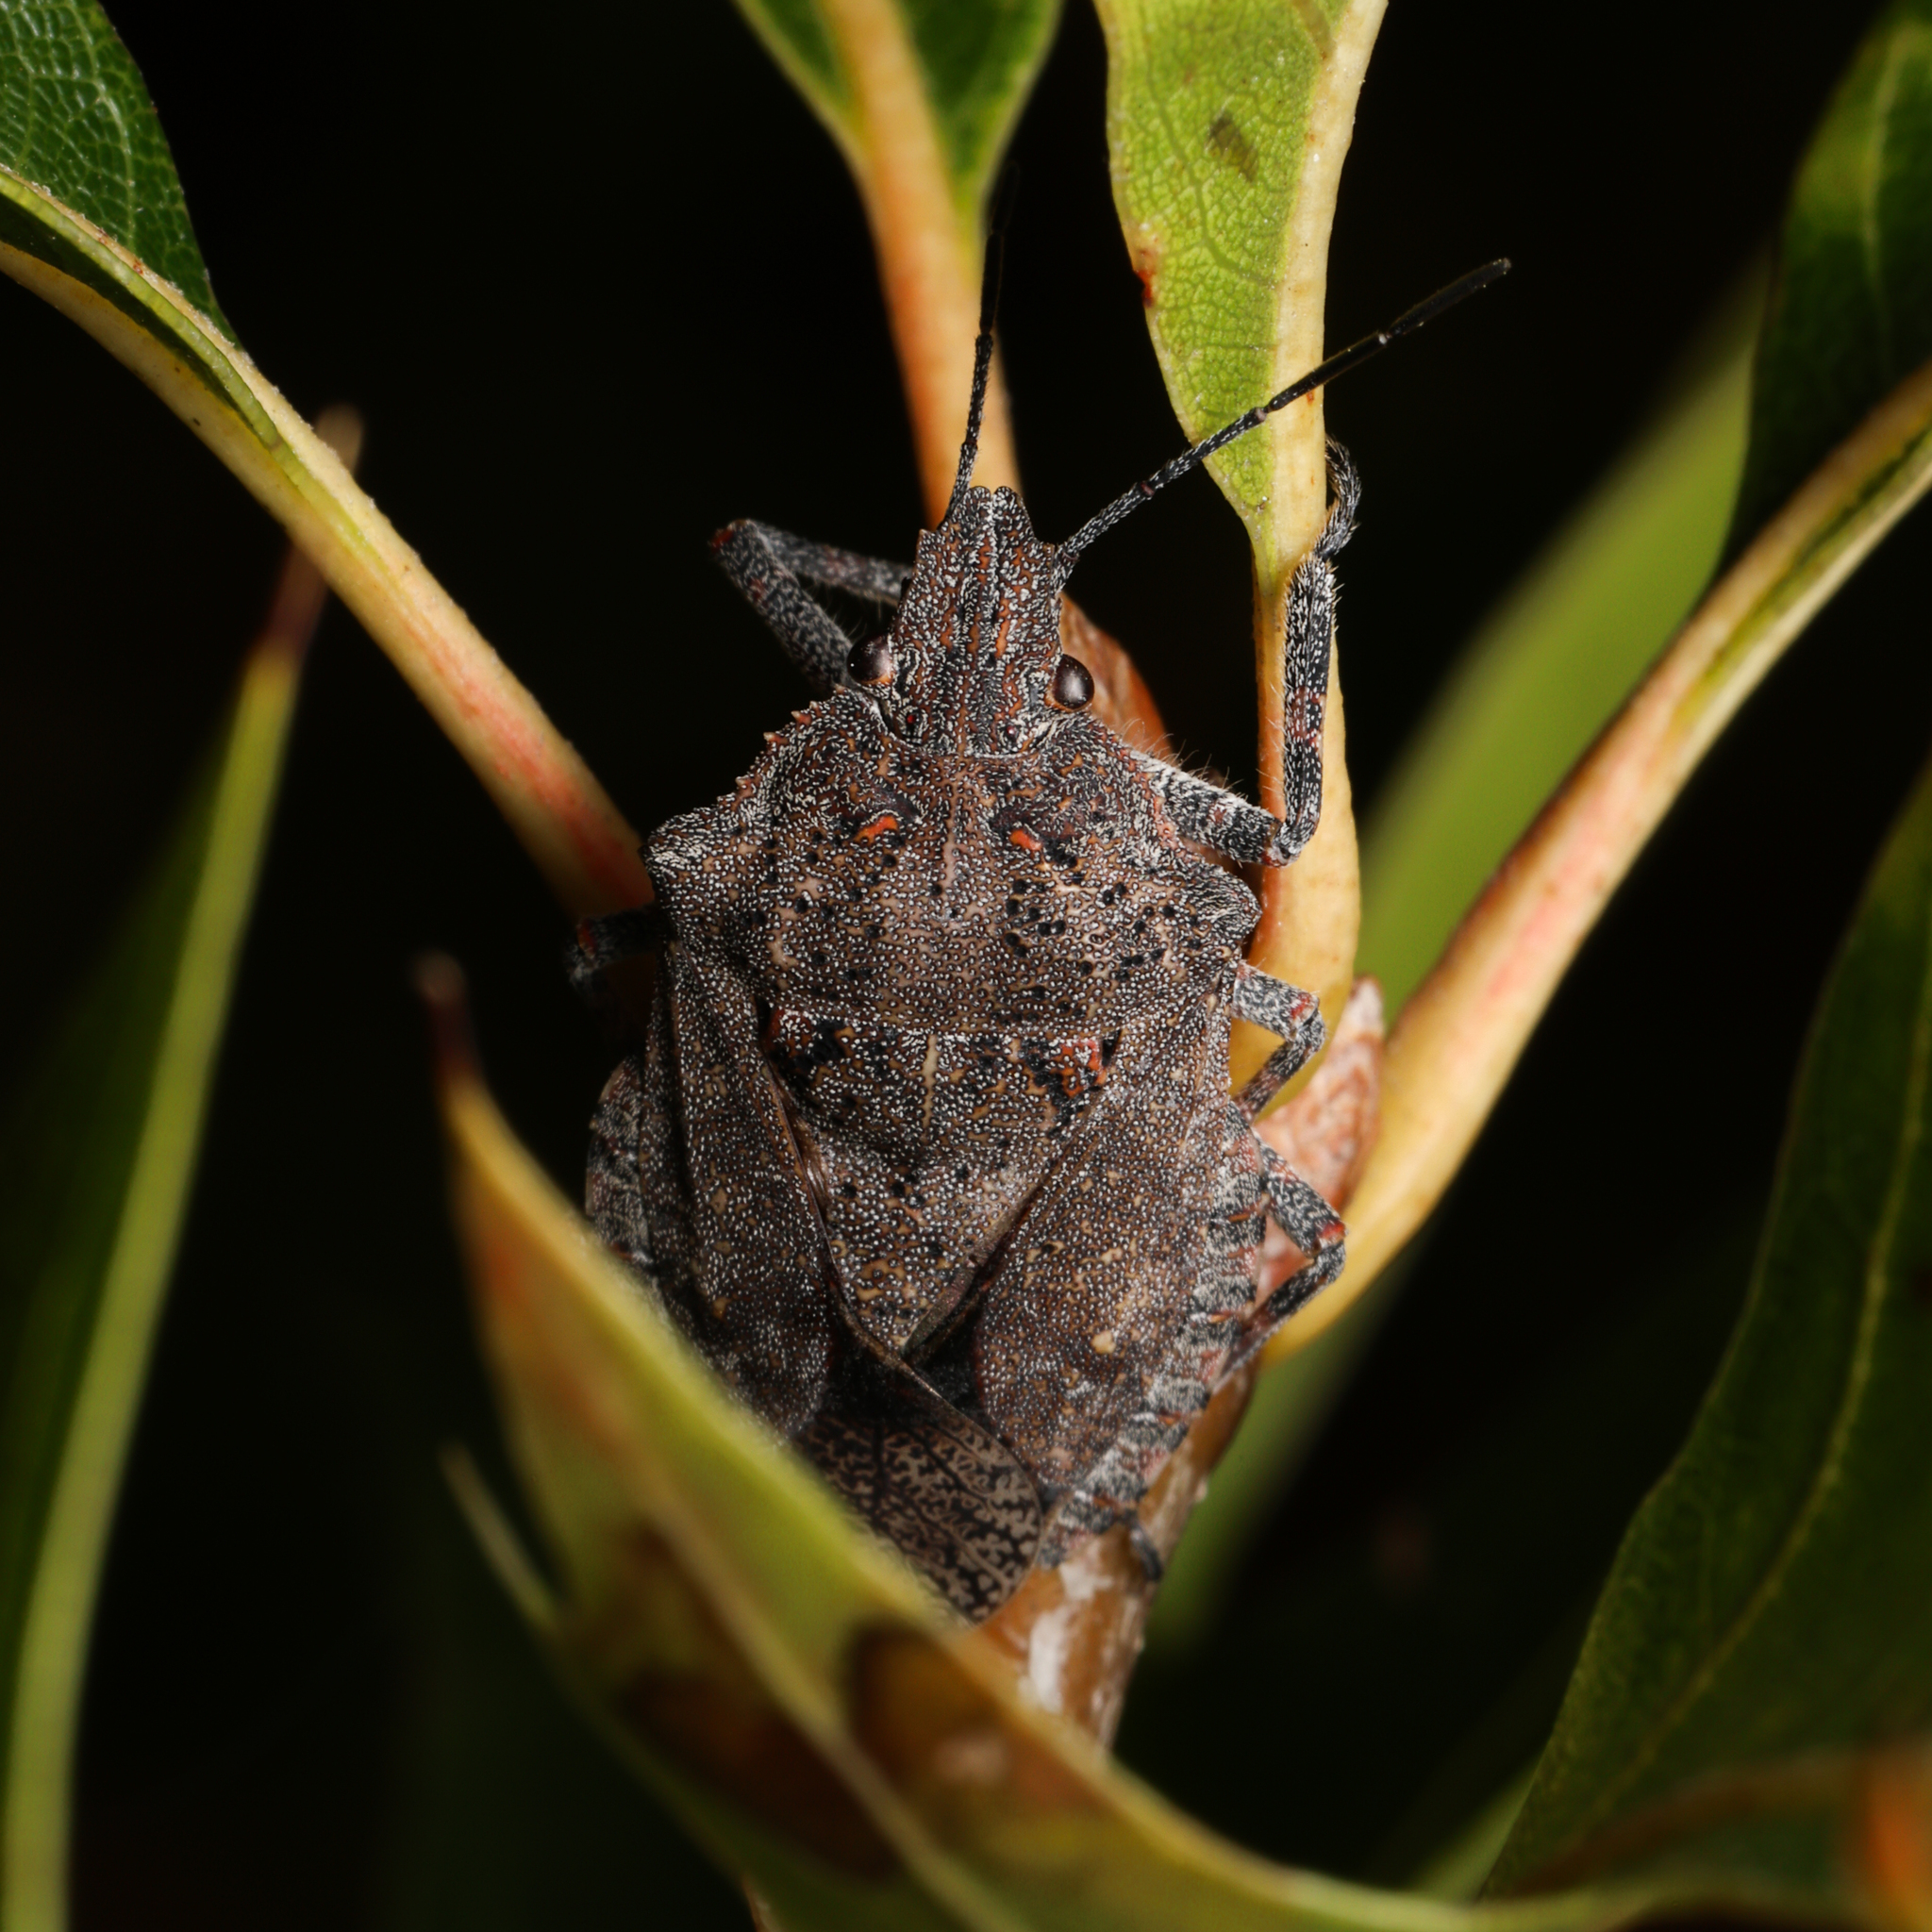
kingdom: Animalia
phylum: Arthropoda
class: Insecta
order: Hemiptera
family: Pentatomidae
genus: Brochymena
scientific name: Brochymena quadripustulata
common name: Four-humped stink bug
